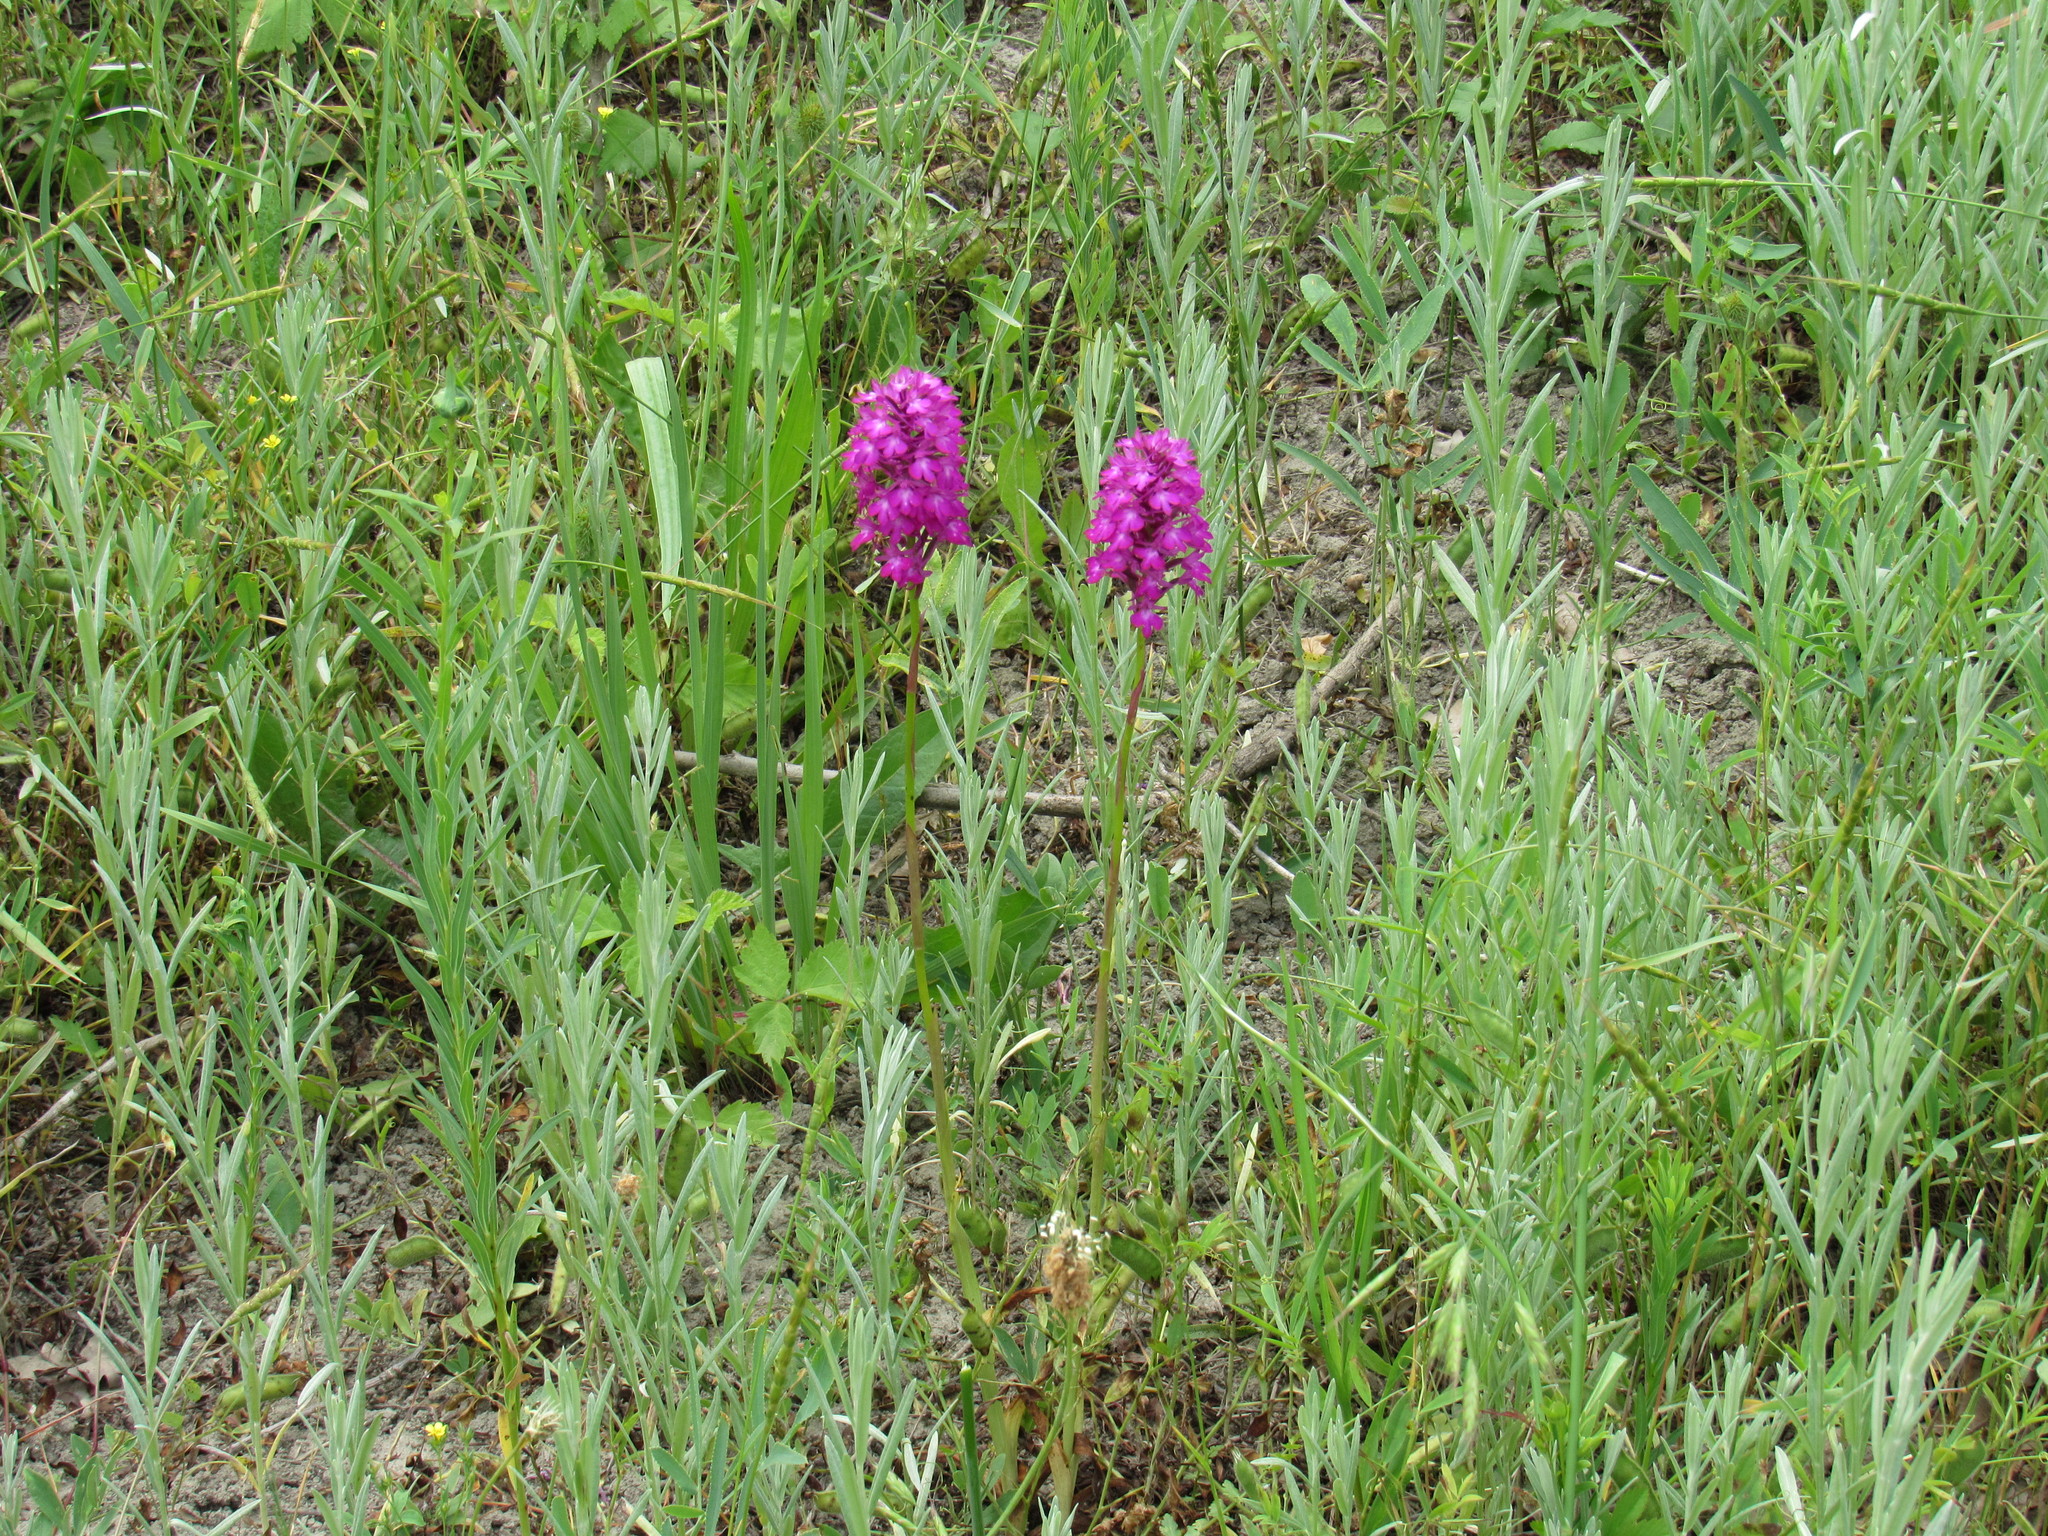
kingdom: Plantae
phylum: Tracheophyta
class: Liliopsida
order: Asparagales
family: Orchidaceae
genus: Anacamptis
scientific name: Anacamptis pyramidalis
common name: Pyramidal orchid
